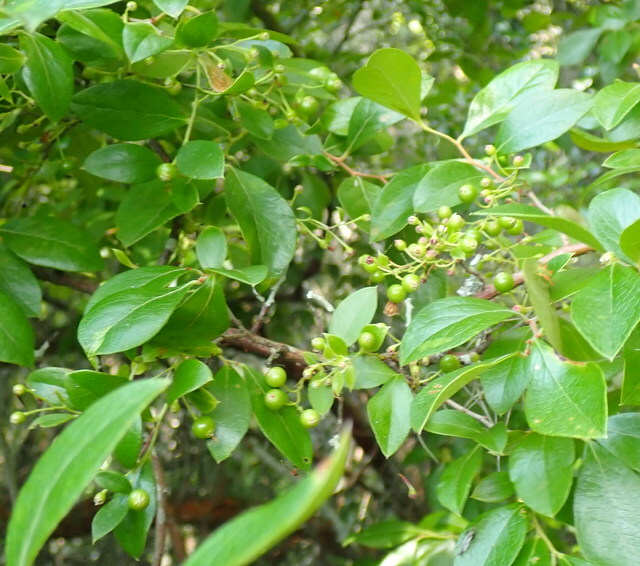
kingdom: Plantae
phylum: Tracheophyta
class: Magnoliopsida
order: Ericales
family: Ericaceae
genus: Vaccinium
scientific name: Vaccinium arboreum
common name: Farkleberry
